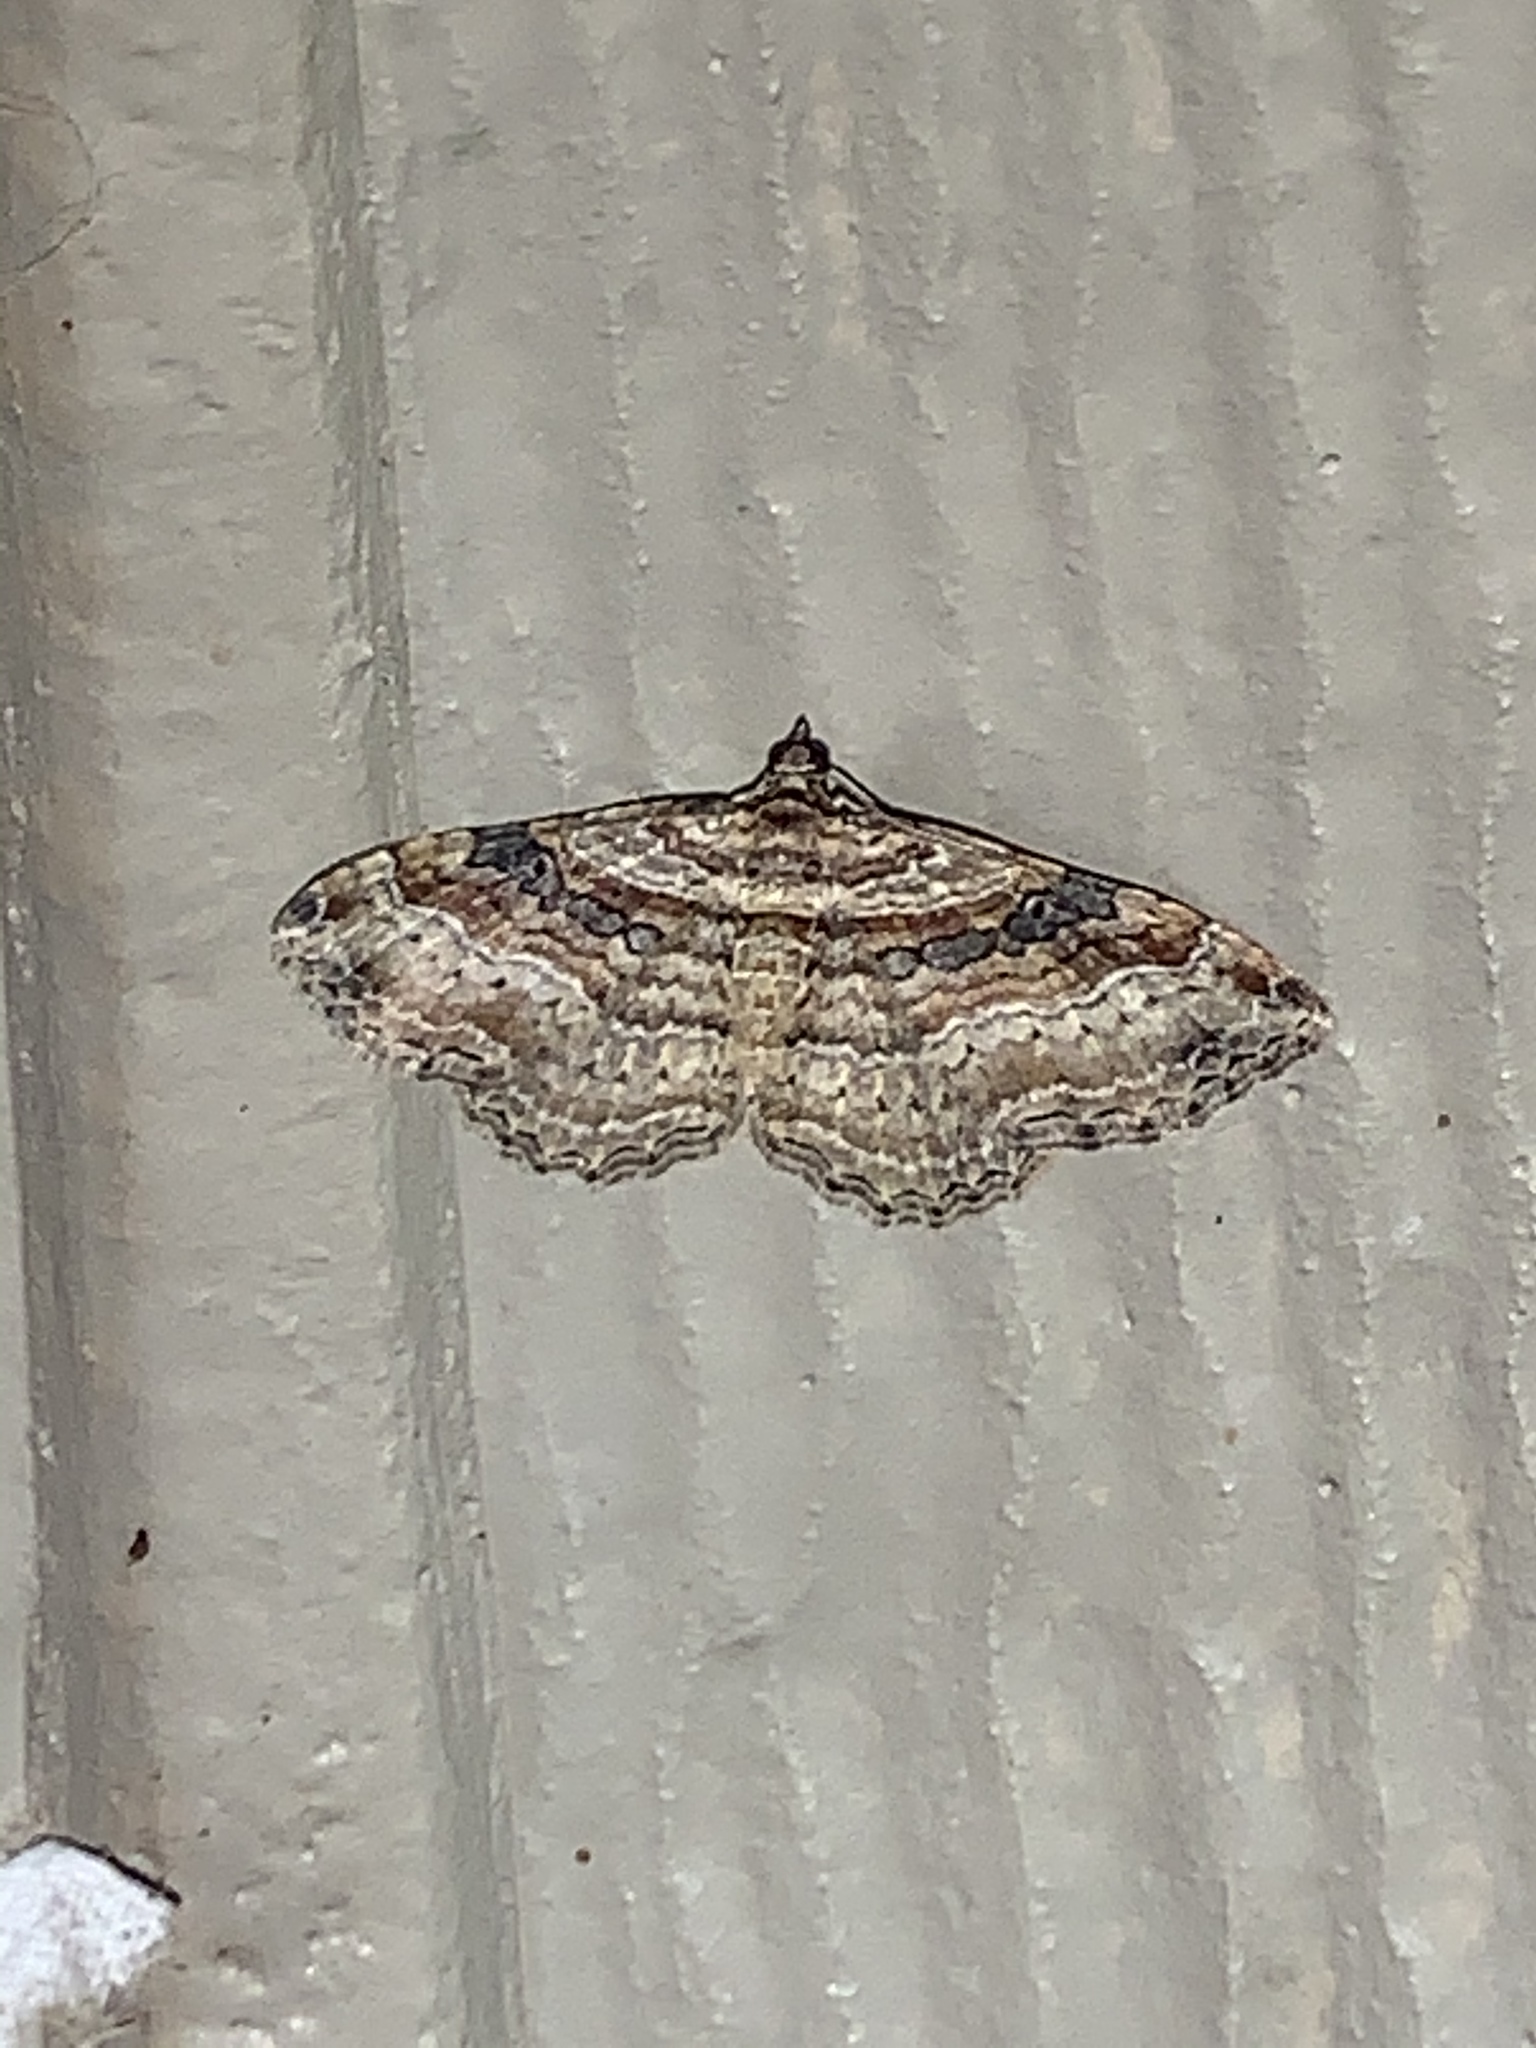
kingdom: Animalia
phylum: Arthropoda
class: Insecta
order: Lepidoptera
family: Geometridae
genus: Costaconvexa
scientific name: Costaconvexa centrostrigaria
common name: Bent-line carpet
